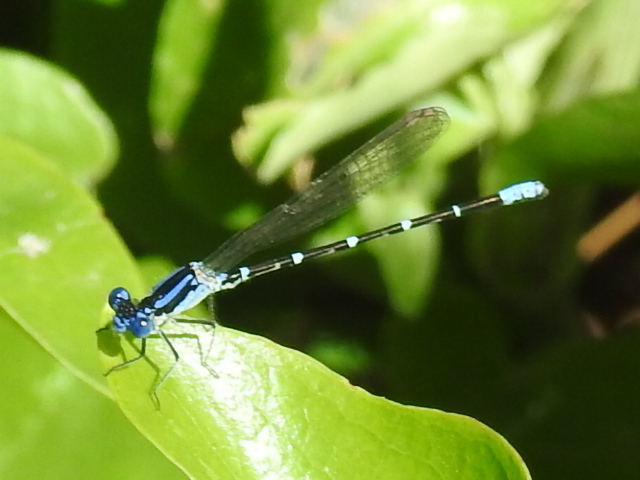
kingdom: Animalia
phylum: Arthropoda
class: Insecta
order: Odonata
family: Coenagrionidae
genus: Argia
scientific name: Argia sedula
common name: Blue-ringed dancer
